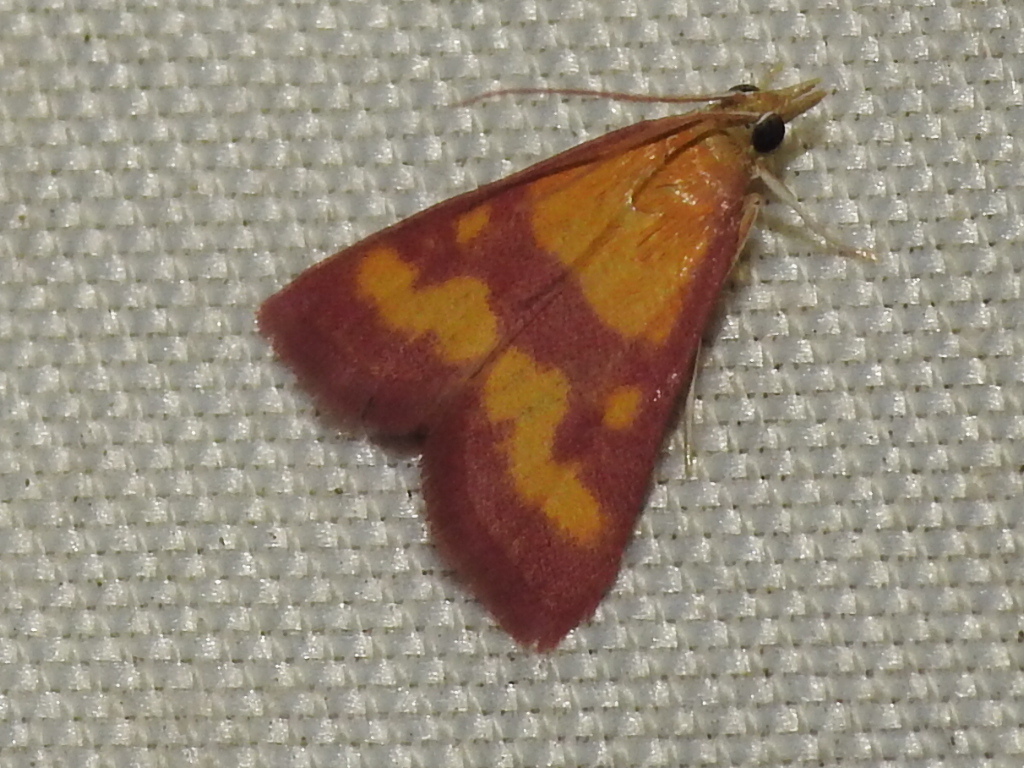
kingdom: Animalia
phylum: Arthropoda
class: Insecta
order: Lepidoptera
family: Crambidae
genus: Pyrausta
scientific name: Pyrausta laticlavia
